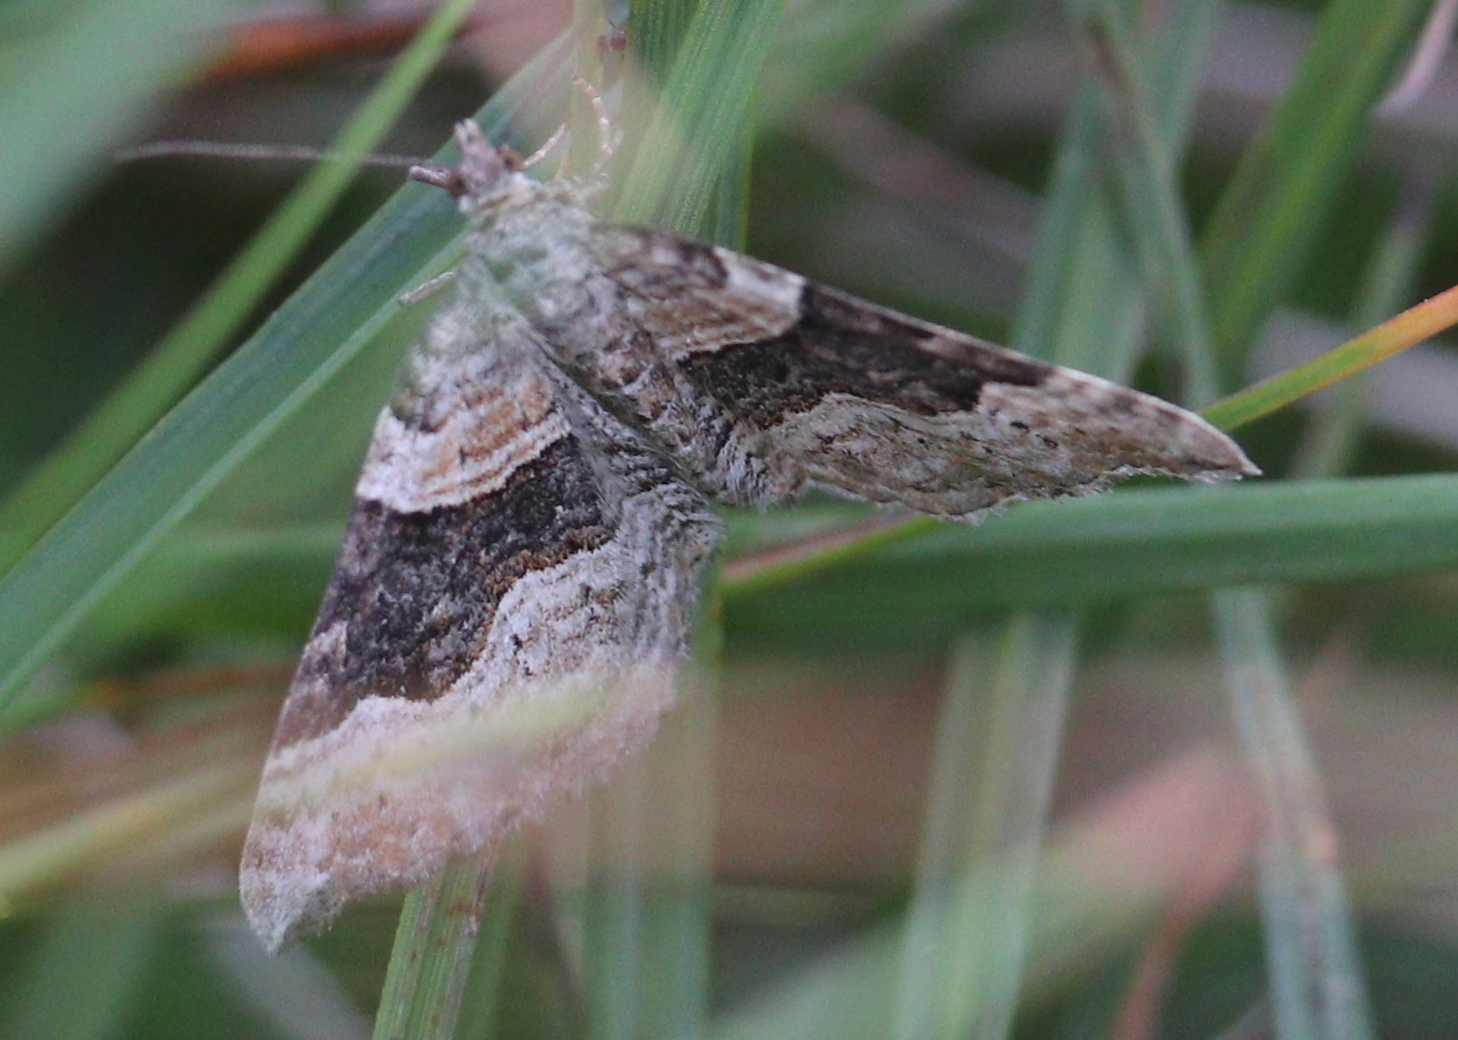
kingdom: Animalia
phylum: Arthropoda
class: Insecta
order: Lepidoptera
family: Geometridae
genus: Xanthorhoe
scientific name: Xanthorhoe decoloraria
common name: Red carpet
